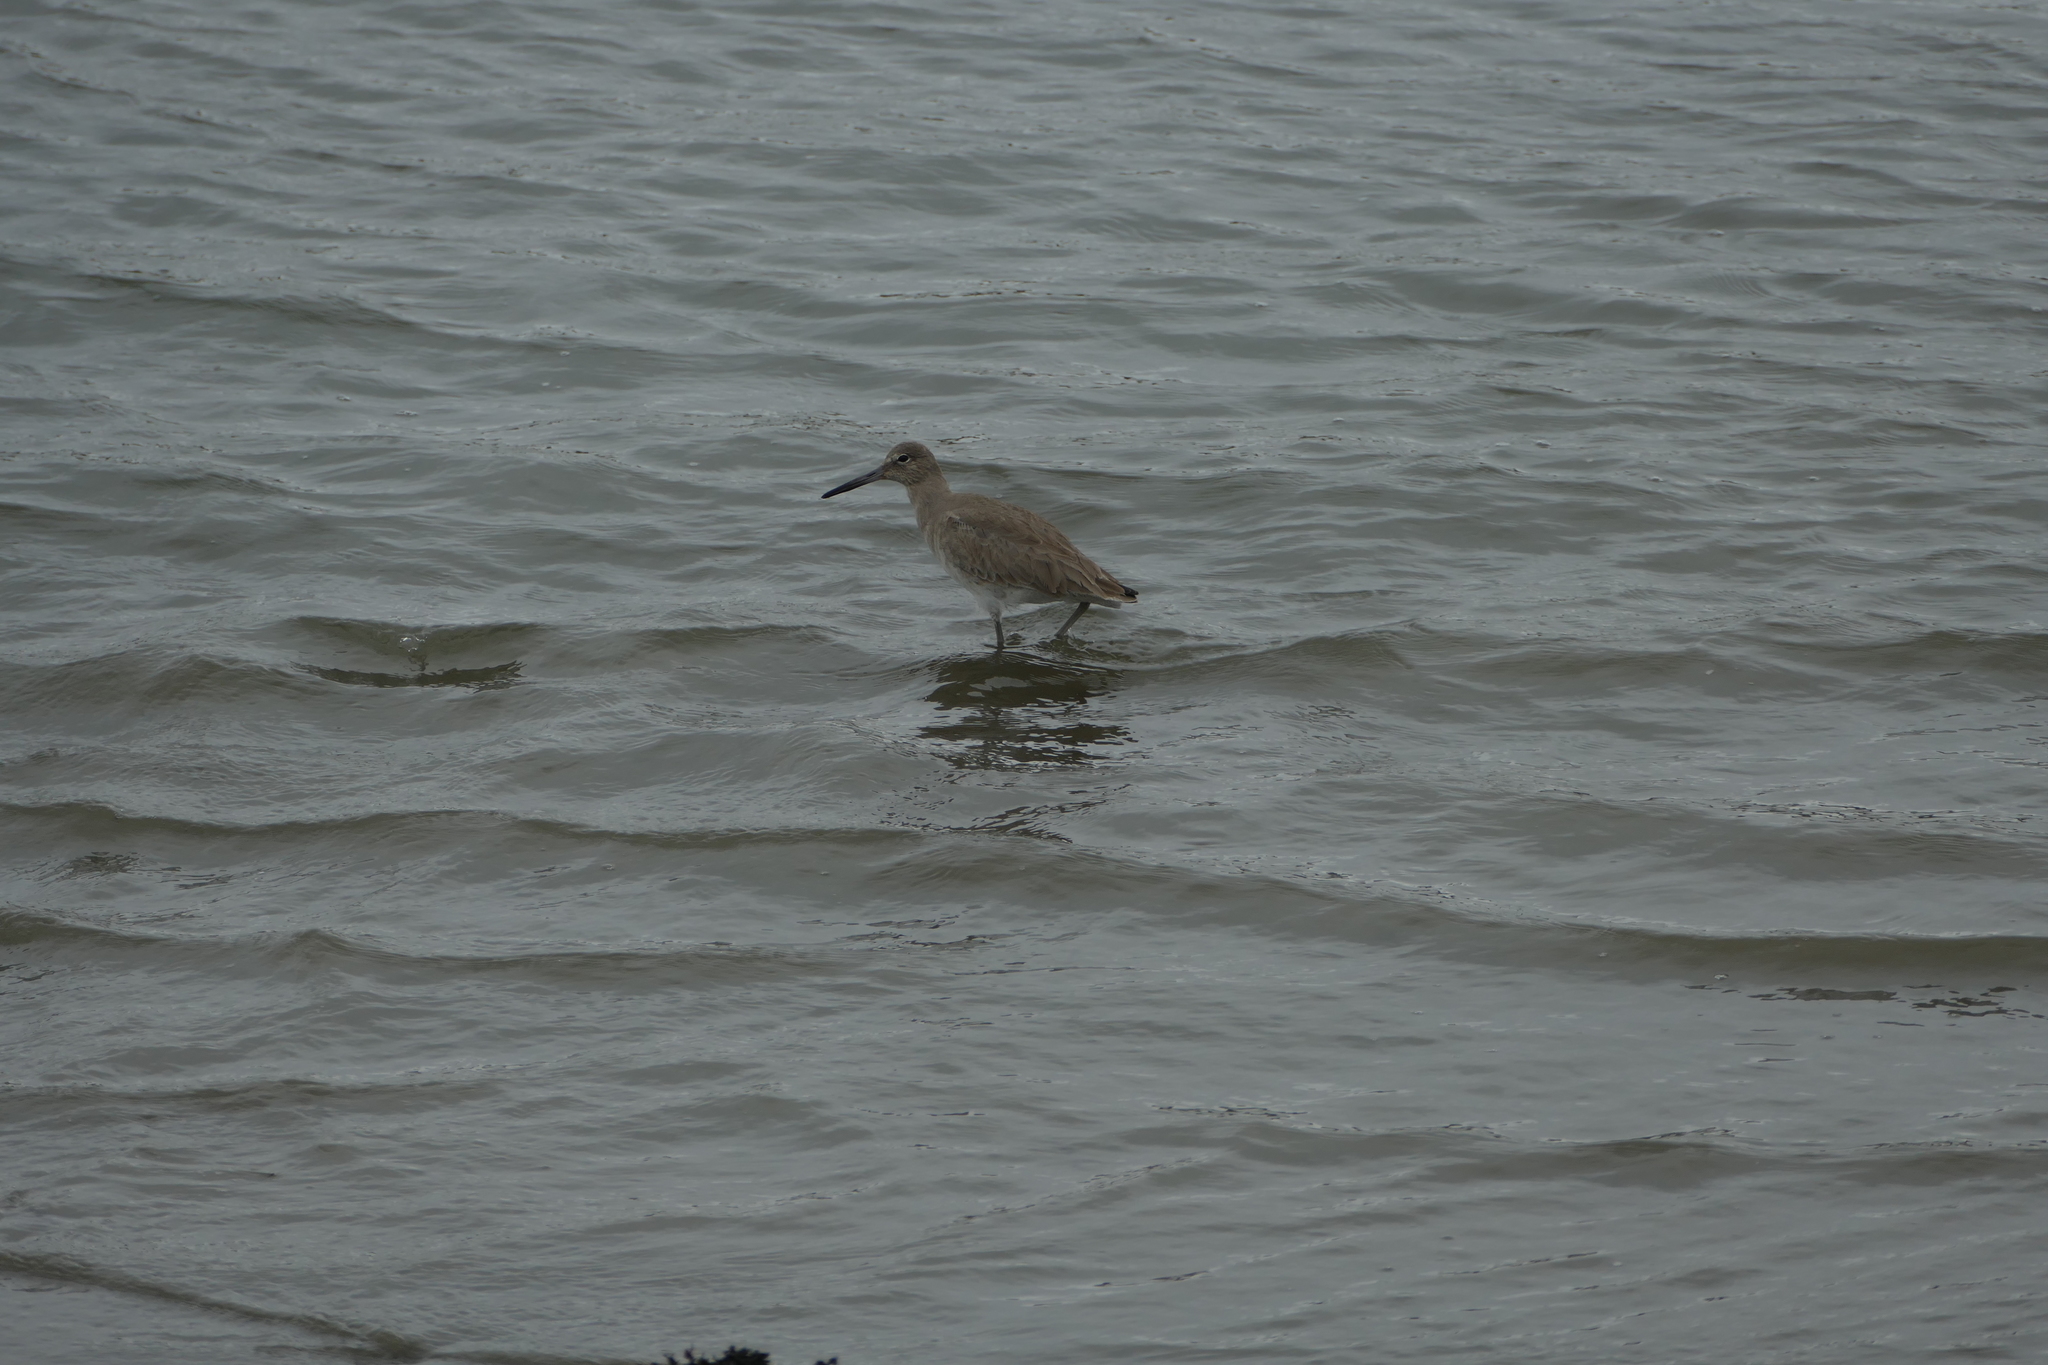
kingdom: Animalia
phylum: Chordata
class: Aves
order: Charadriiformes
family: Scolopacidae
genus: Tringa
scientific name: Tringa semipalmata
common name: Willet
